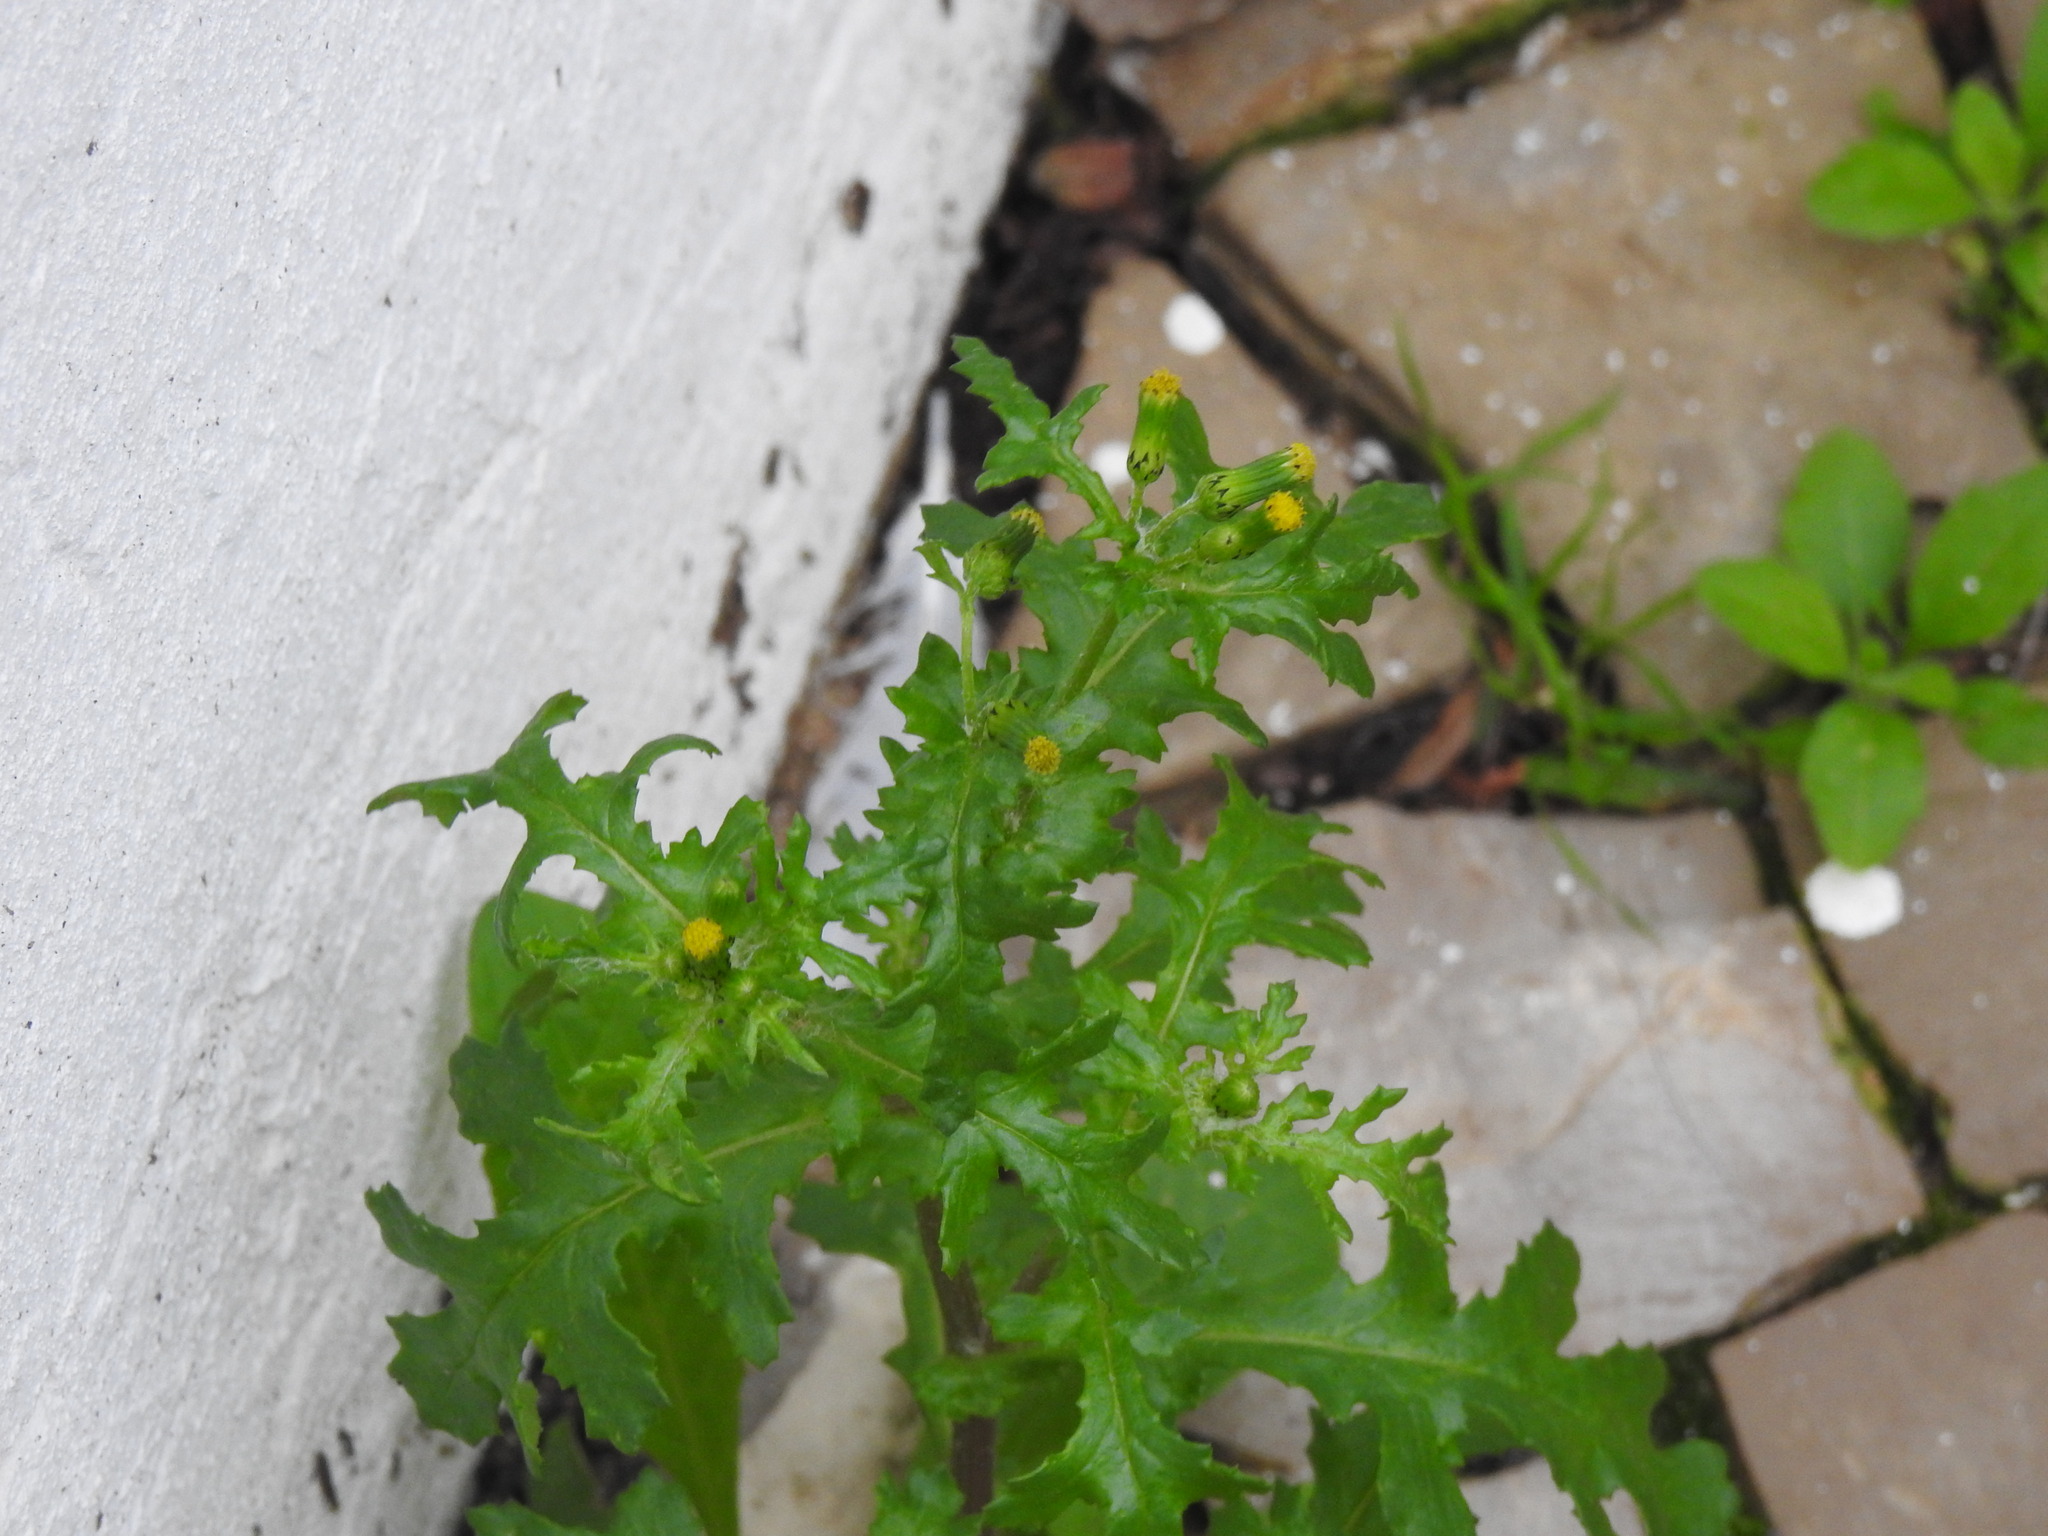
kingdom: Plantae
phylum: Tracheophyta
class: Magnoliopsida
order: Asterales
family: Asteraceae
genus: Senecio
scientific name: Senecio vulgaris
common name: Old-man-in-the-spring
